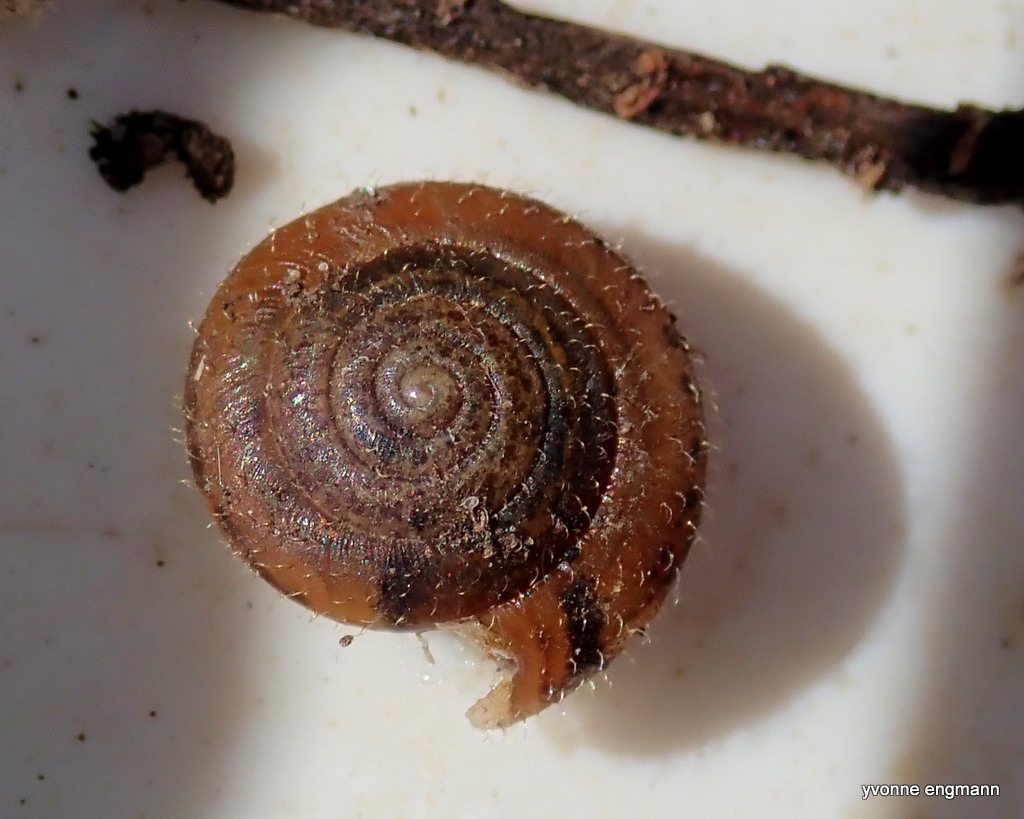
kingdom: Animalia
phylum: Mollusca
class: Gastropoda
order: Stylommatophora
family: Hygromiidae
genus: Trochulus
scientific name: Trochulus hispidus
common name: Hairy snail
